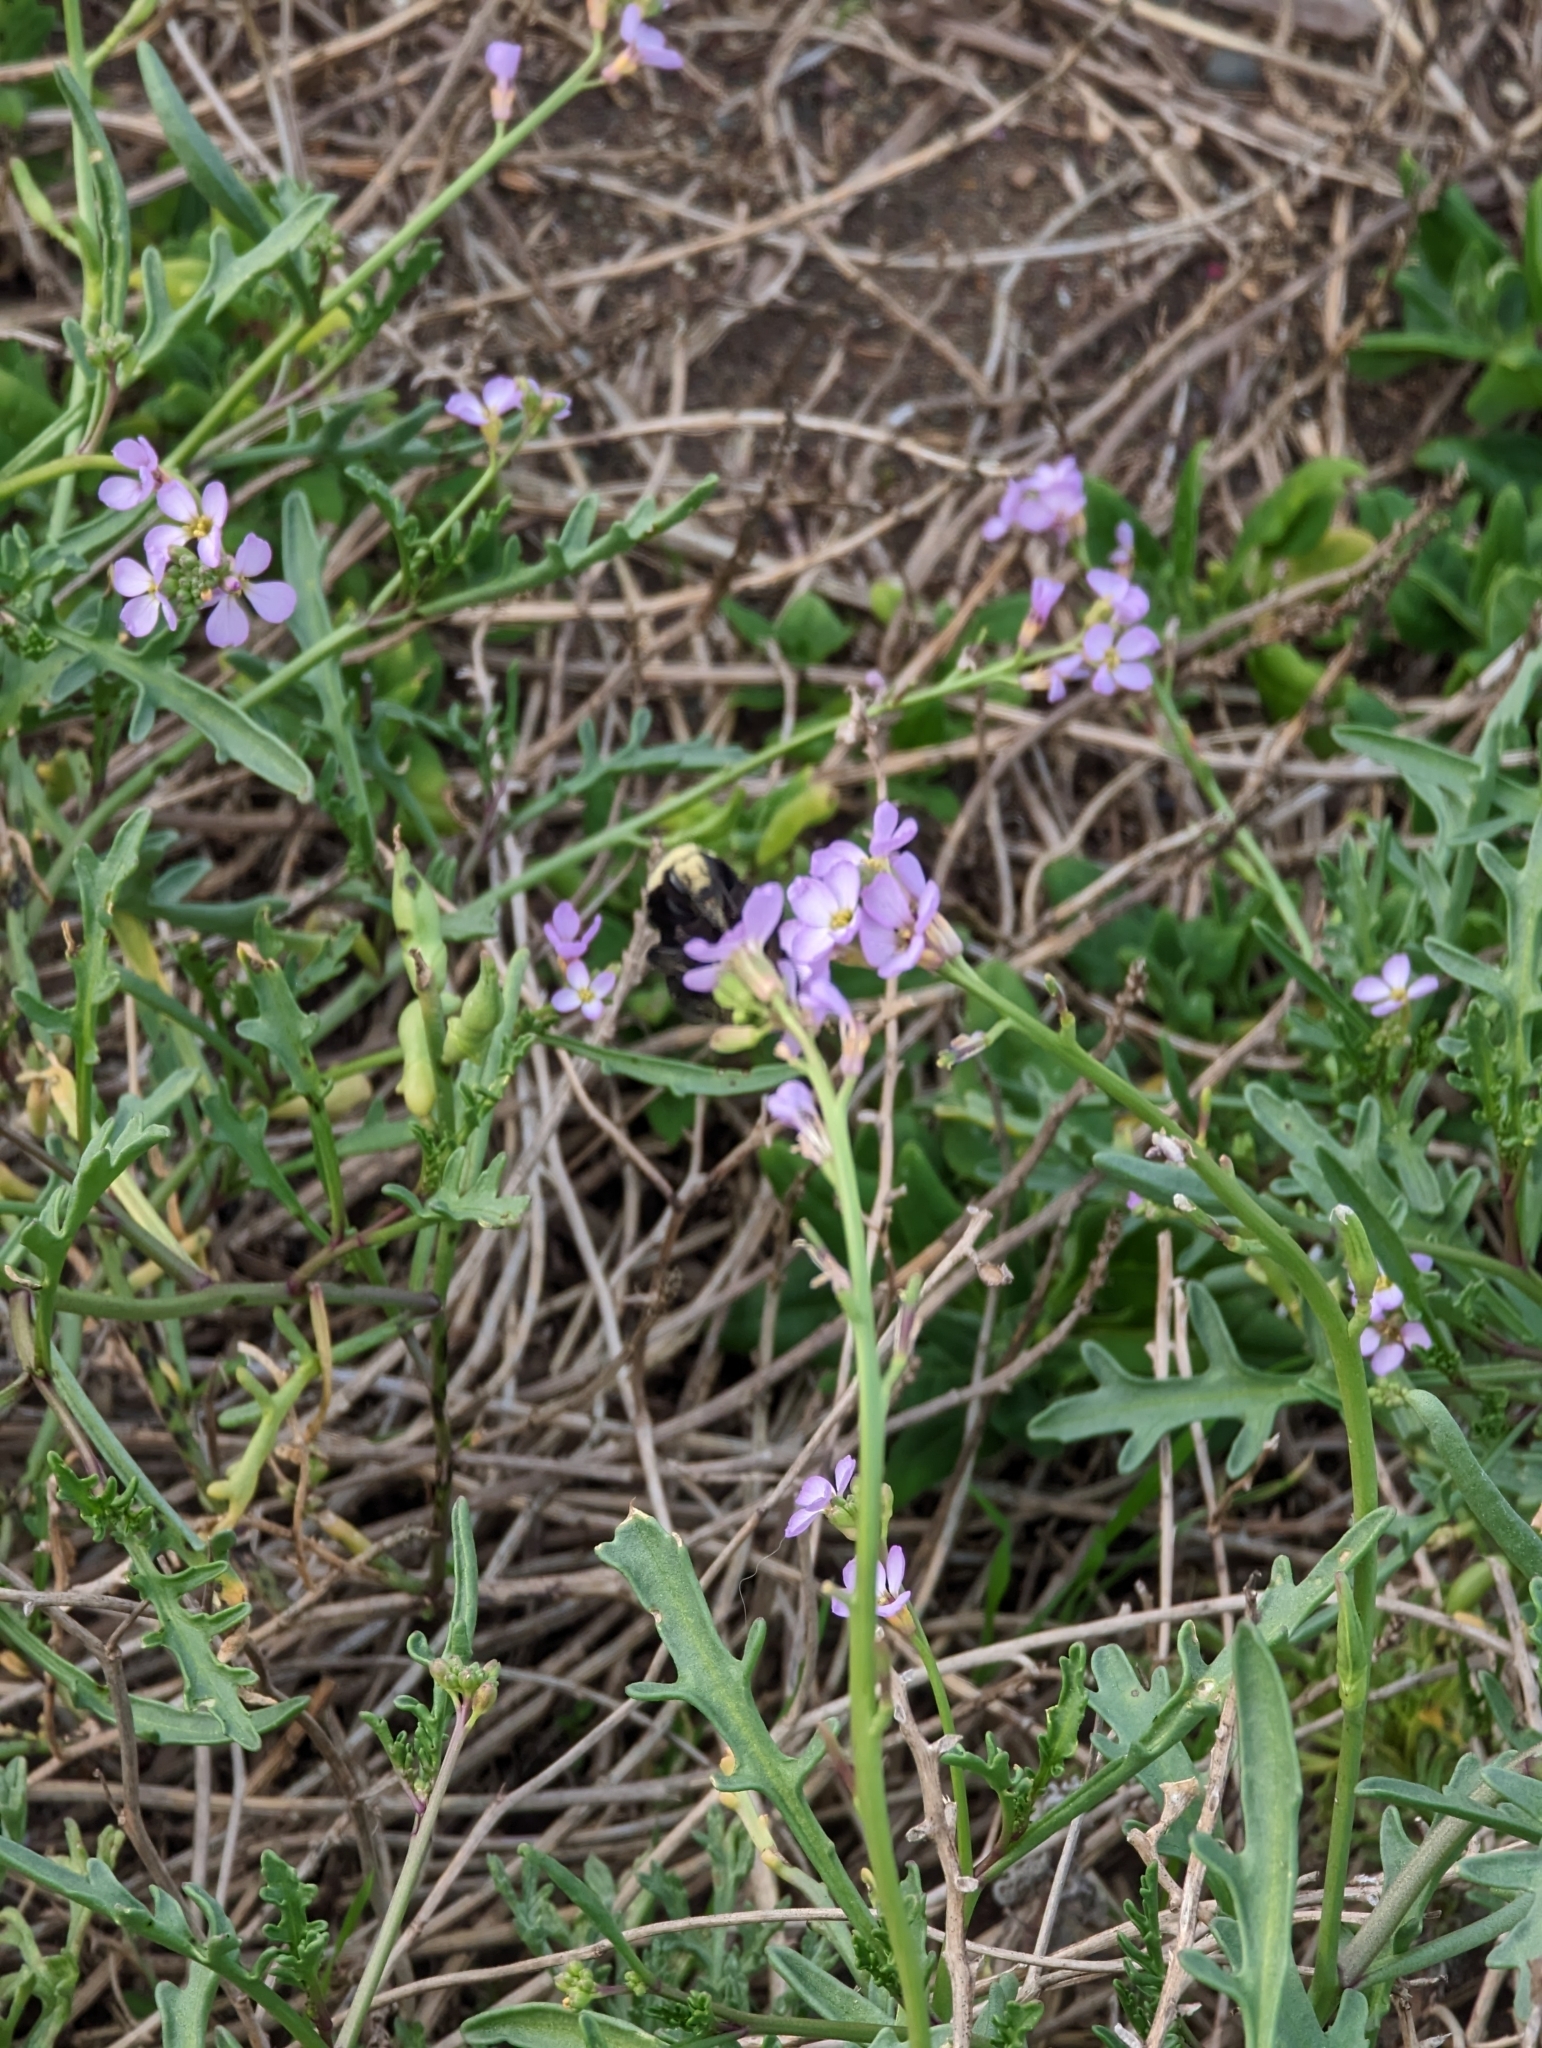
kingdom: Plantae
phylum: Tracheophyta
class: Magnoliopsida
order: Brassicales
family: Brassicaceae
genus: Cakile
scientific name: Cakile maritima
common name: Sea rocket
